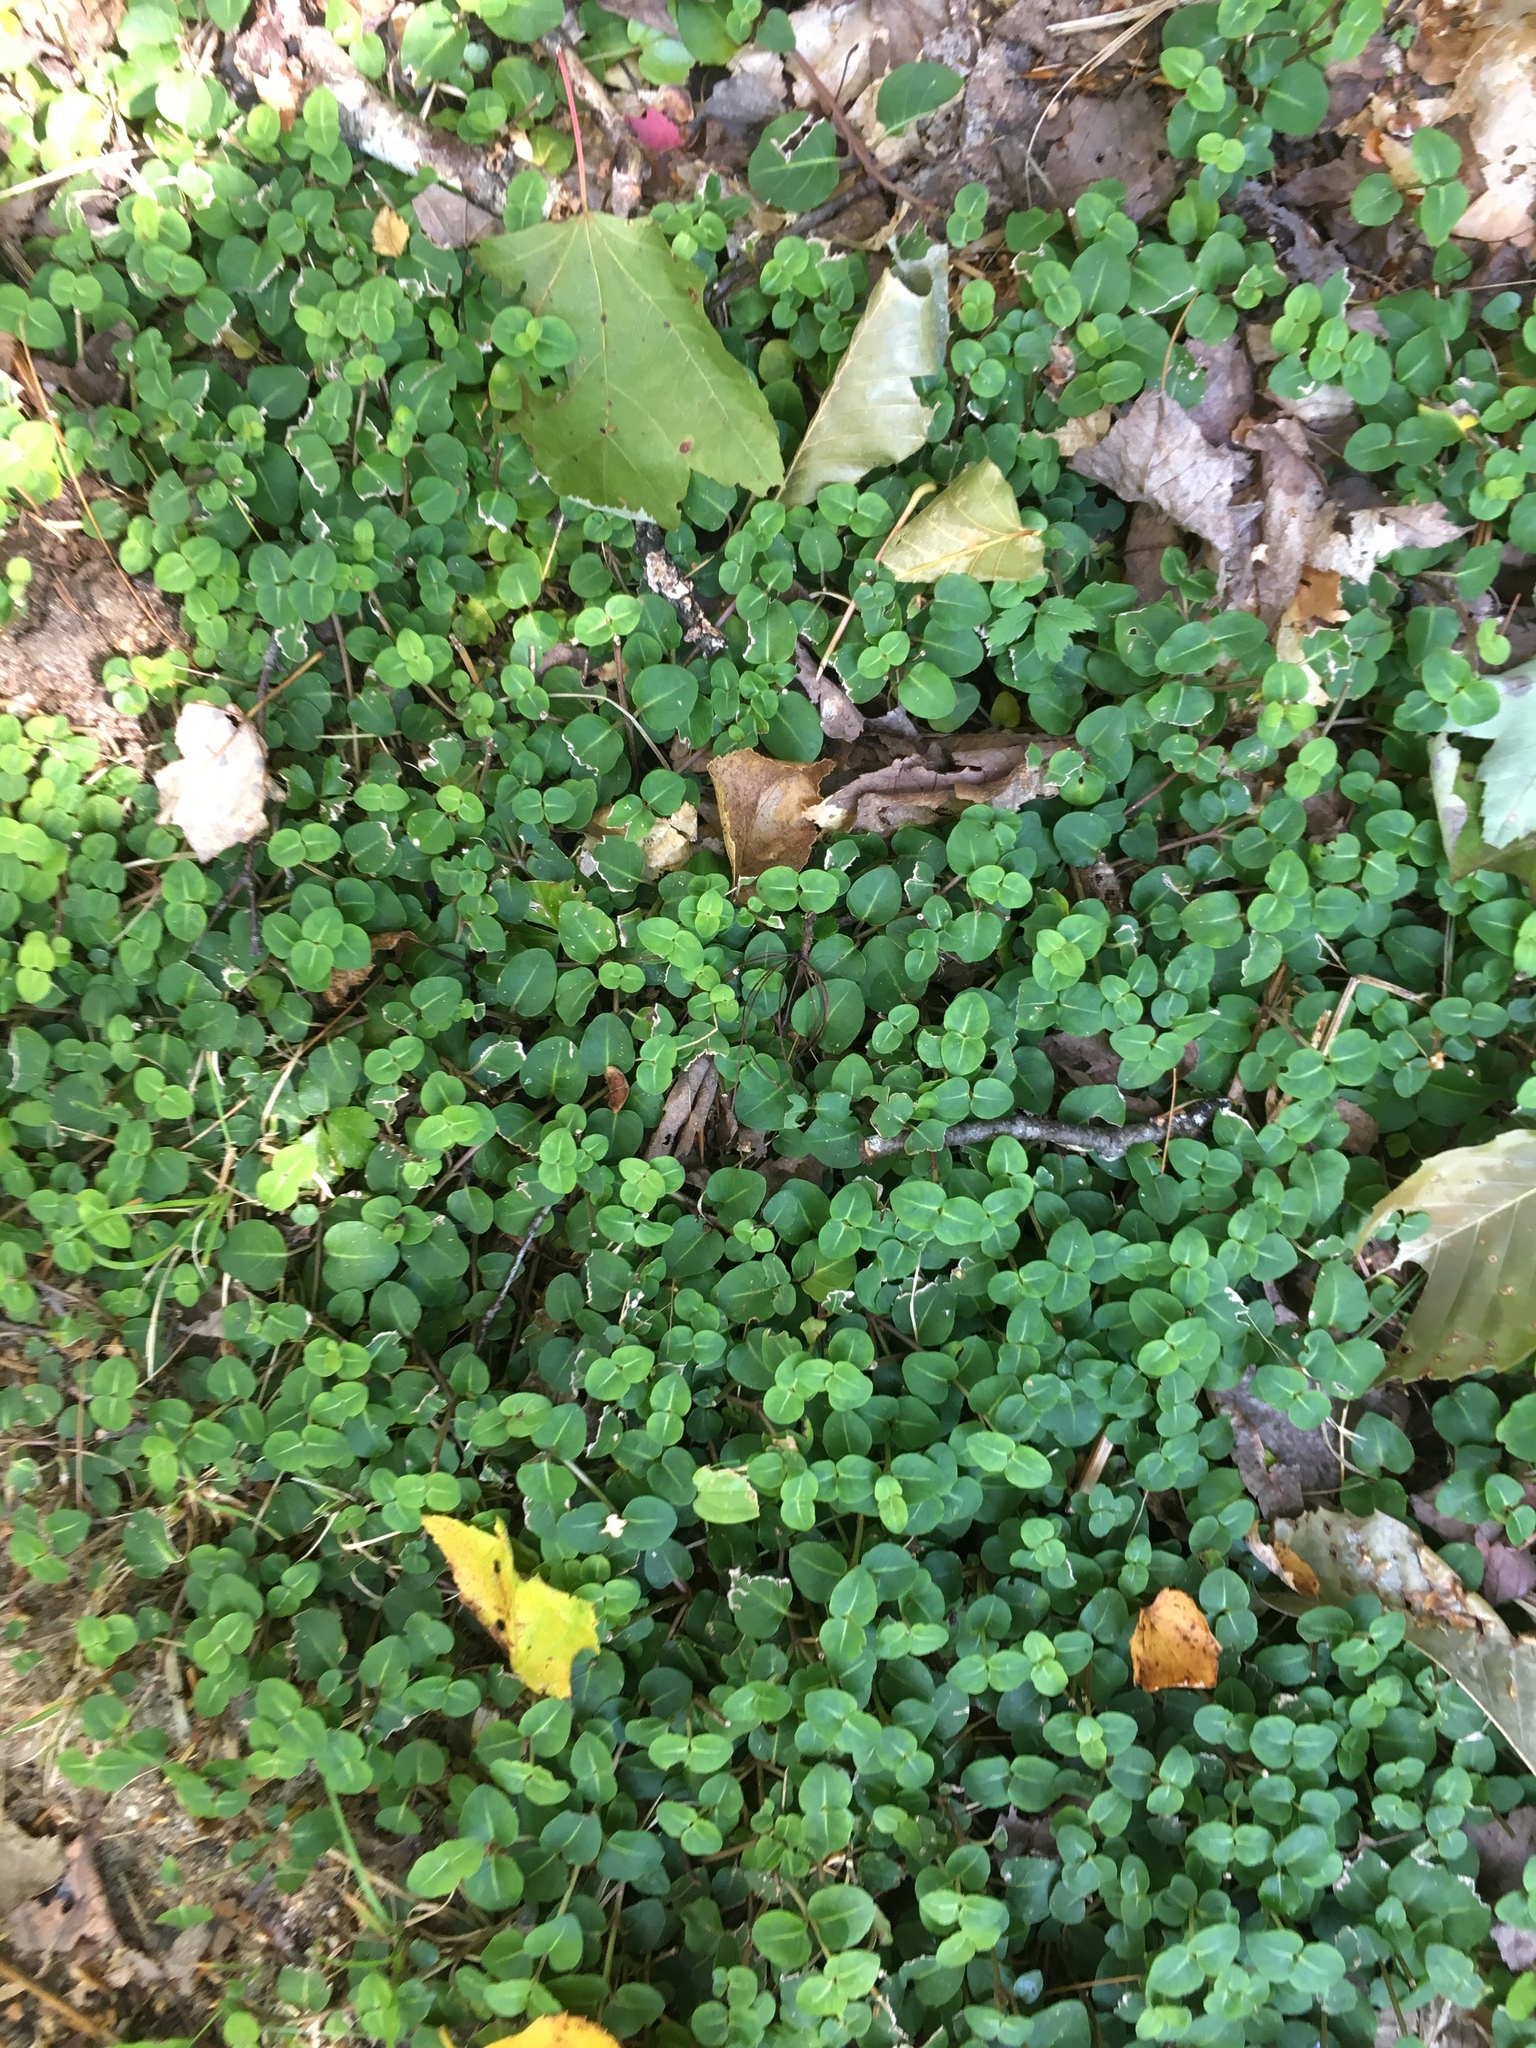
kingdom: Plantae
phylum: Tracheophyta
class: Magnoliopsida
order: Gentianales
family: Rubiaceae
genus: Mitchella
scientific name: Mitchella repens
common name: Partridge-berry
